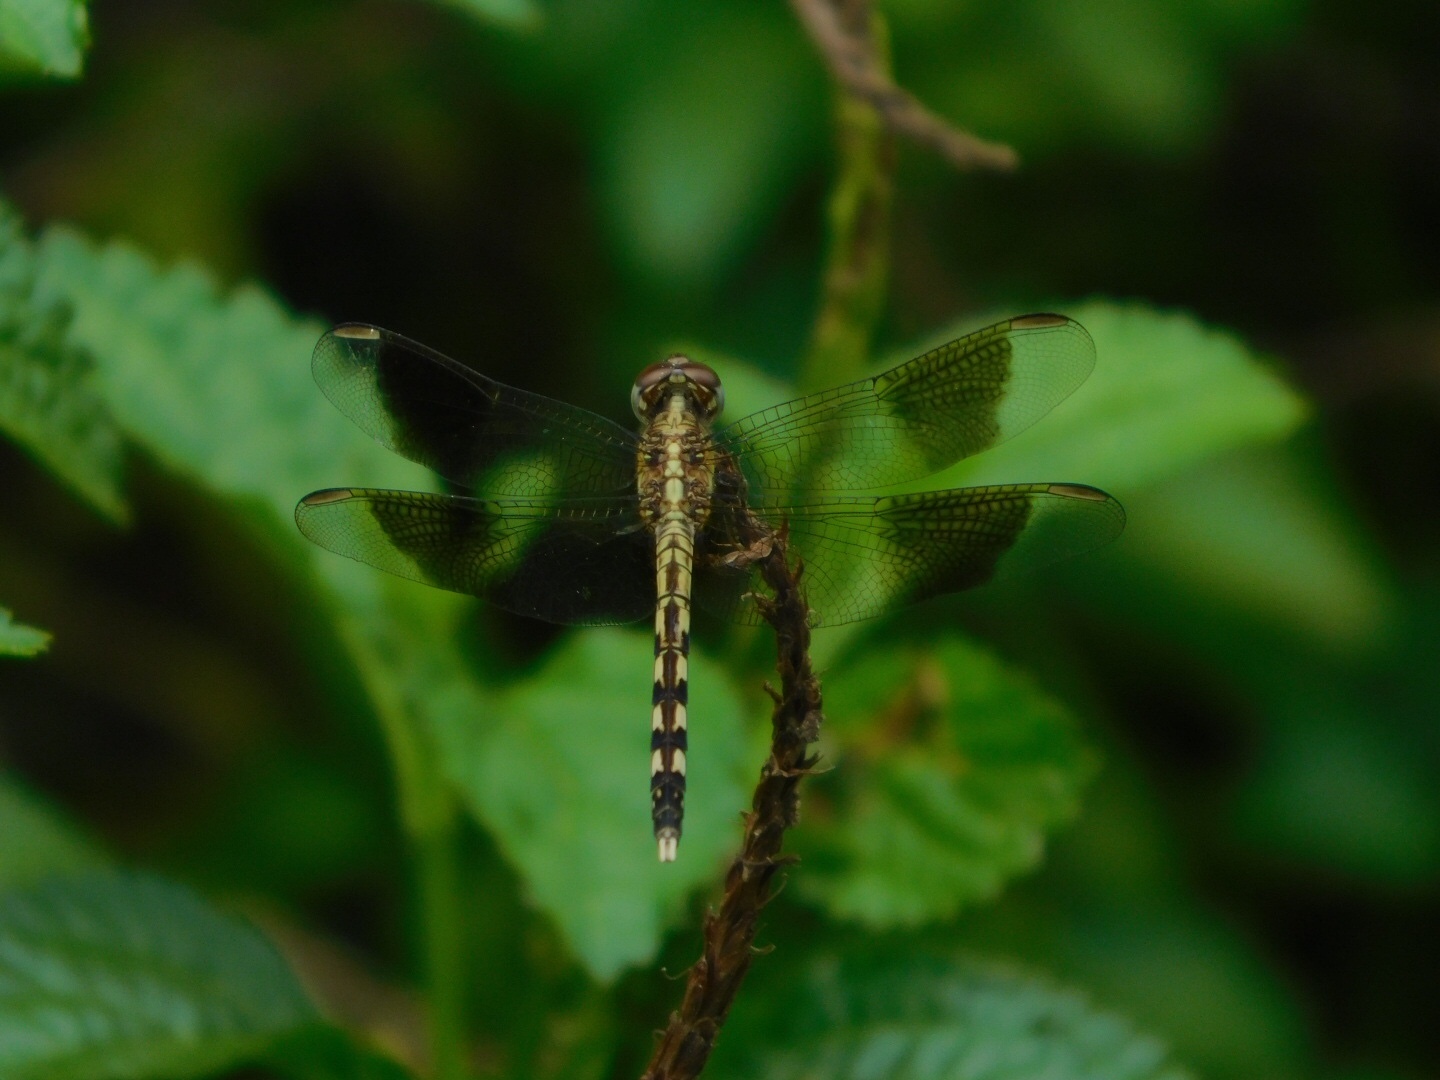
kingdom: Animalia
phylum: Arthropoda
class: Insecta
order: Odonata
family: Libellulidae
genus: Erythrodiplax
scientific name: Erythrodiplax umbrata
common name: Band-winged dragonlet
